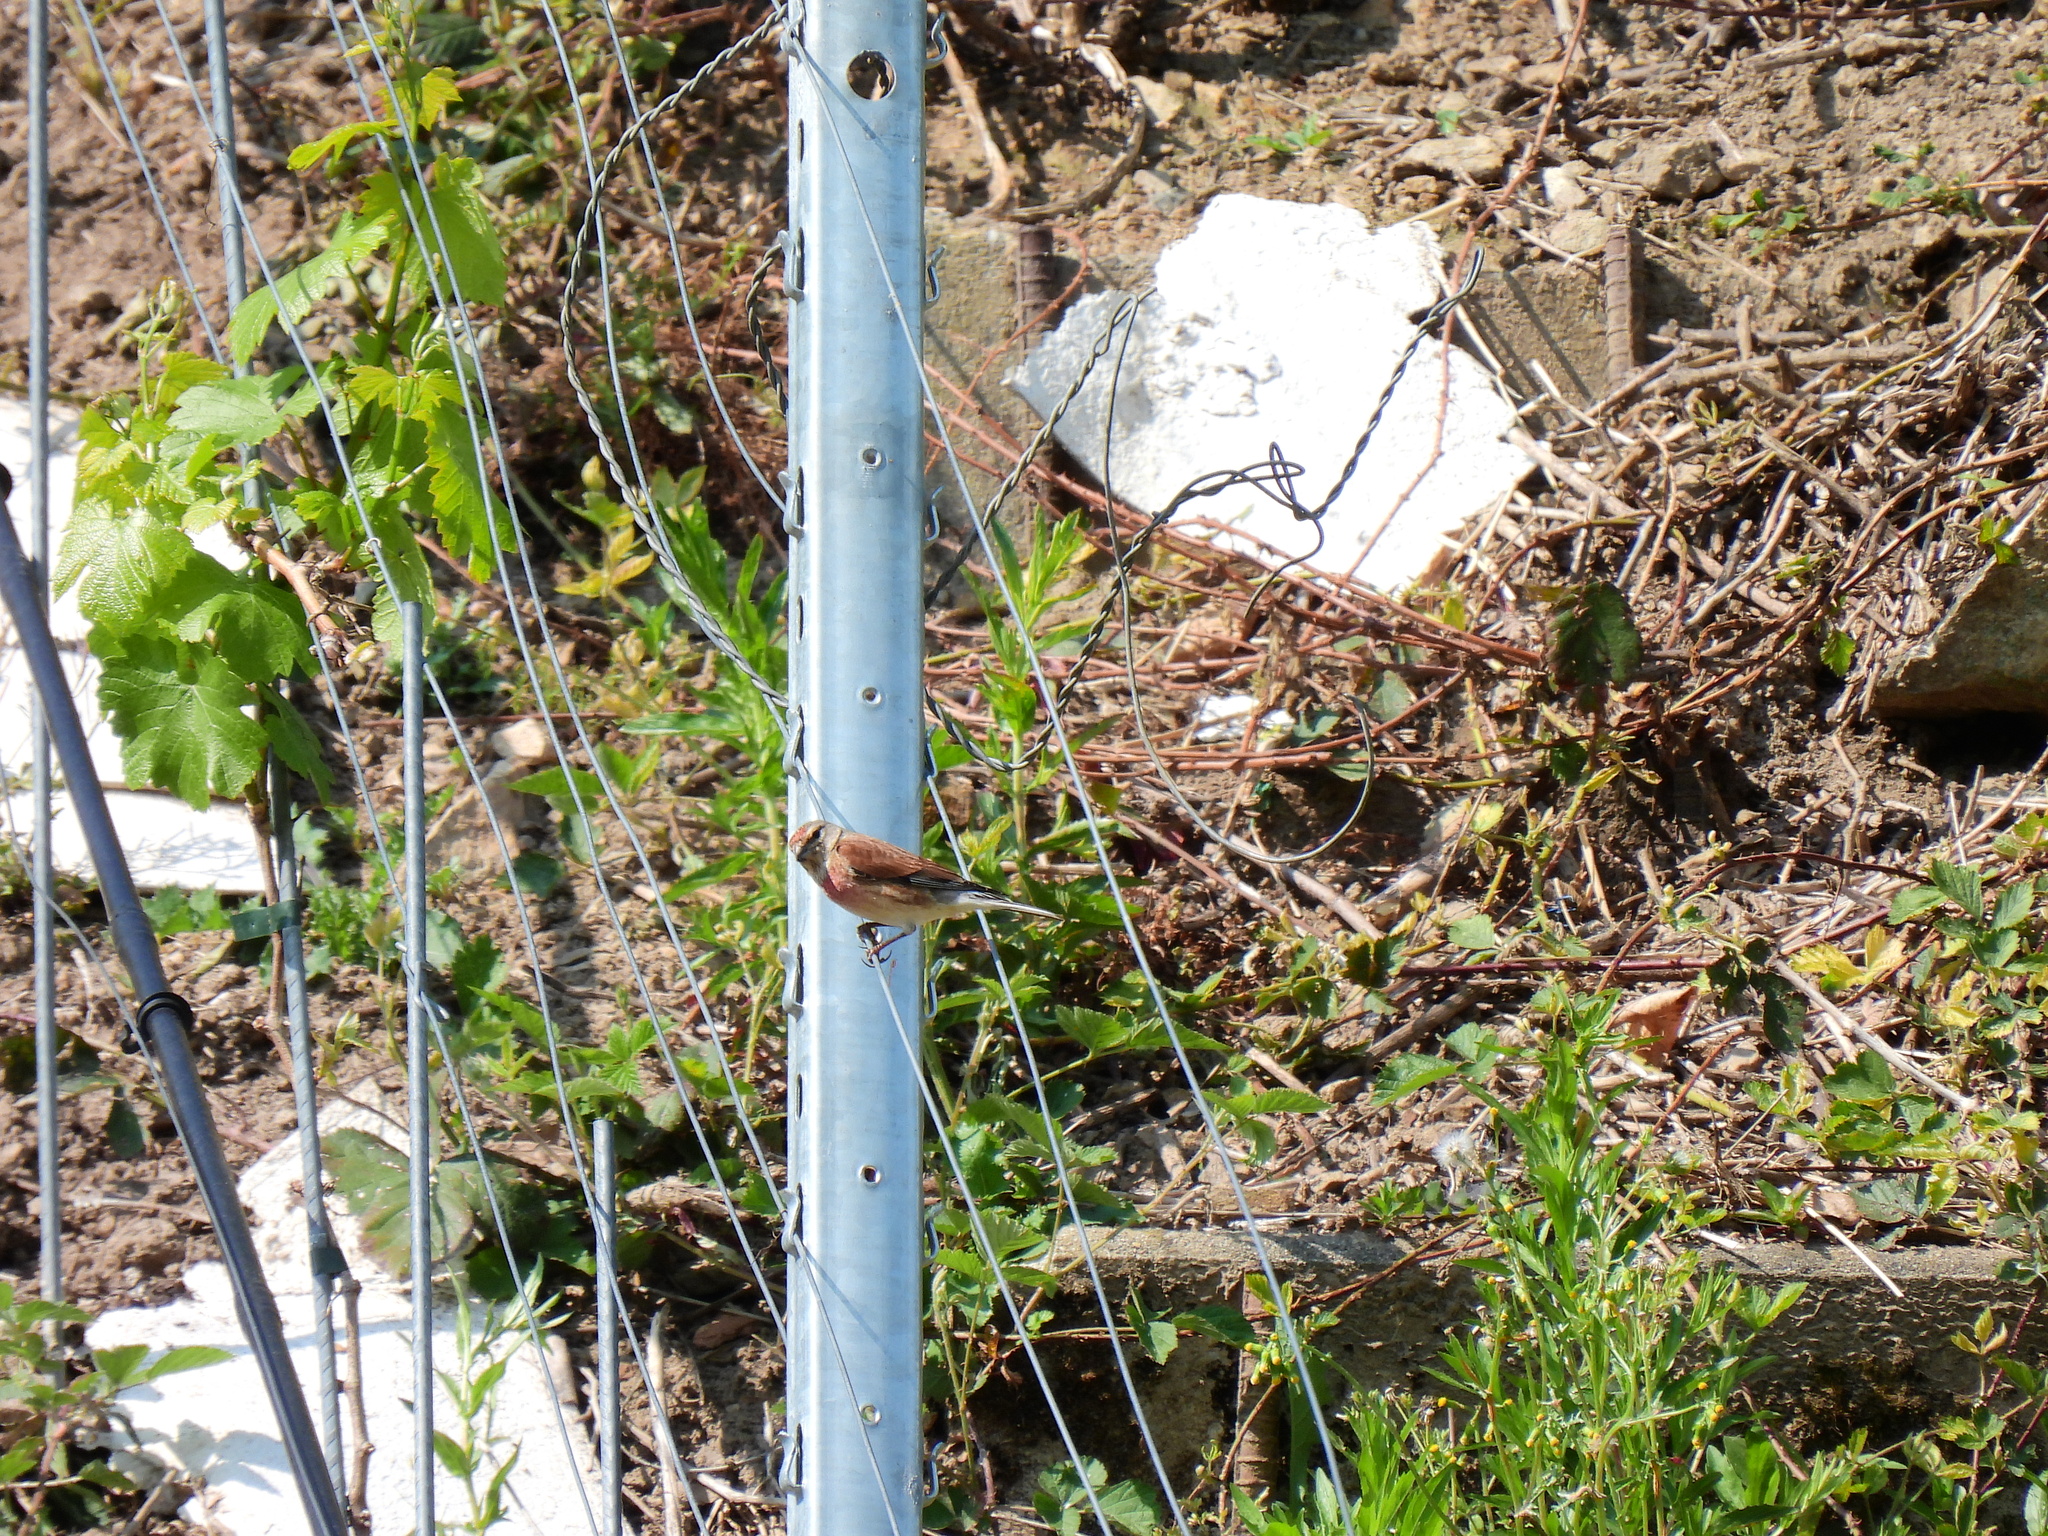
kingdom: Animalia
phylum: Chordata
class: Aves
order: Passeriformes
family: Fringillidae
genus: Linaria
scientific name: Linaria cannabina
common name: Common linnet
